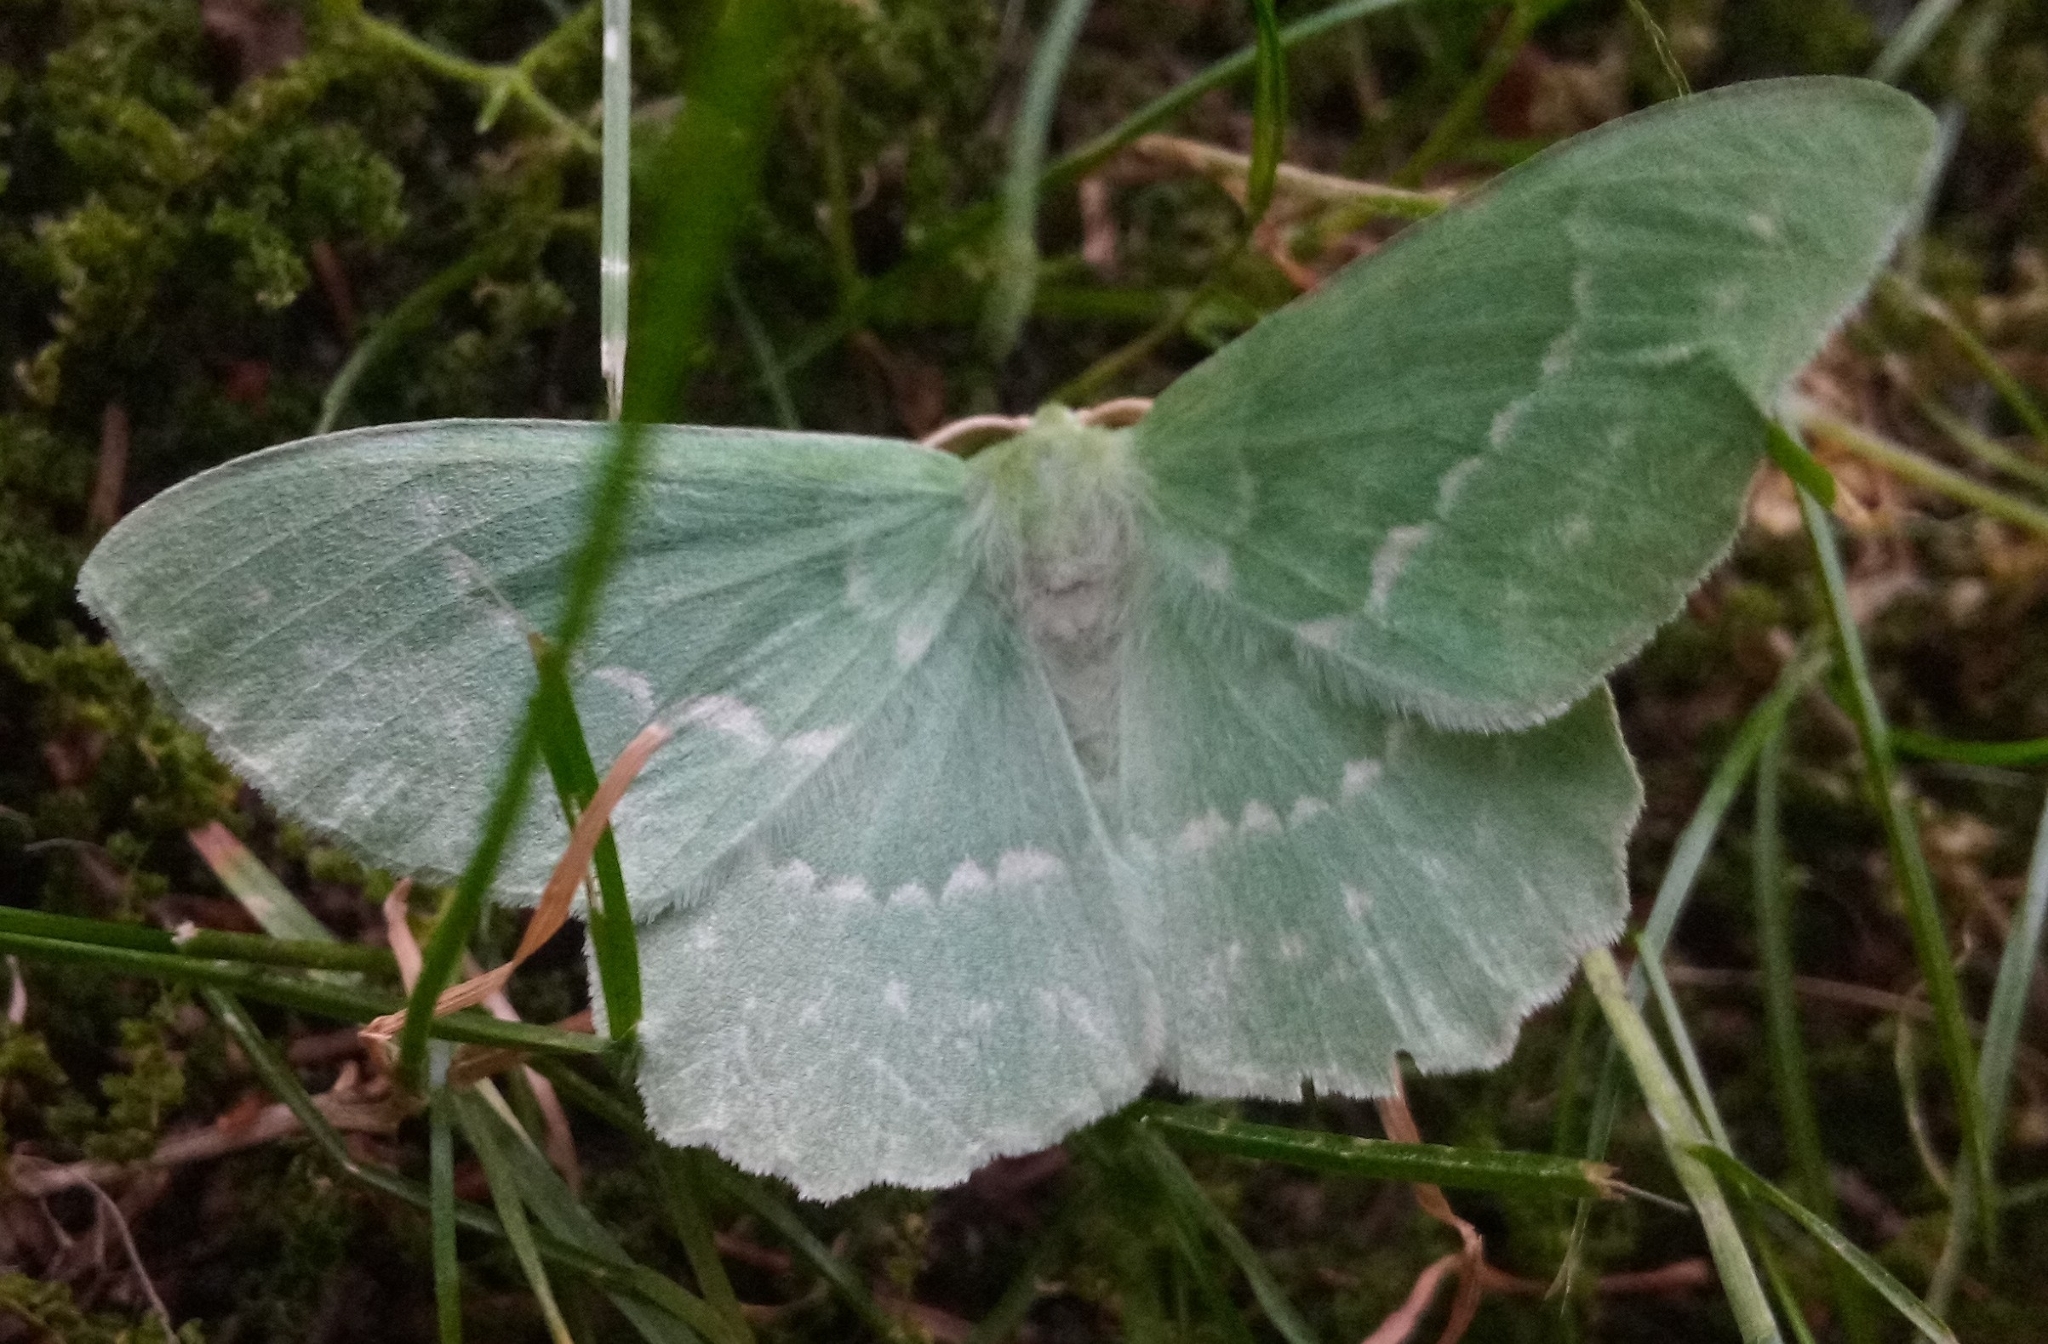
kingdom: Animalia
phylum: Arthropoda
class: Insecta
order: Lepidoptera
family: Geometridae
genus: Geometra
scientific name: Geometra papilionaria
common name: Large emerald
